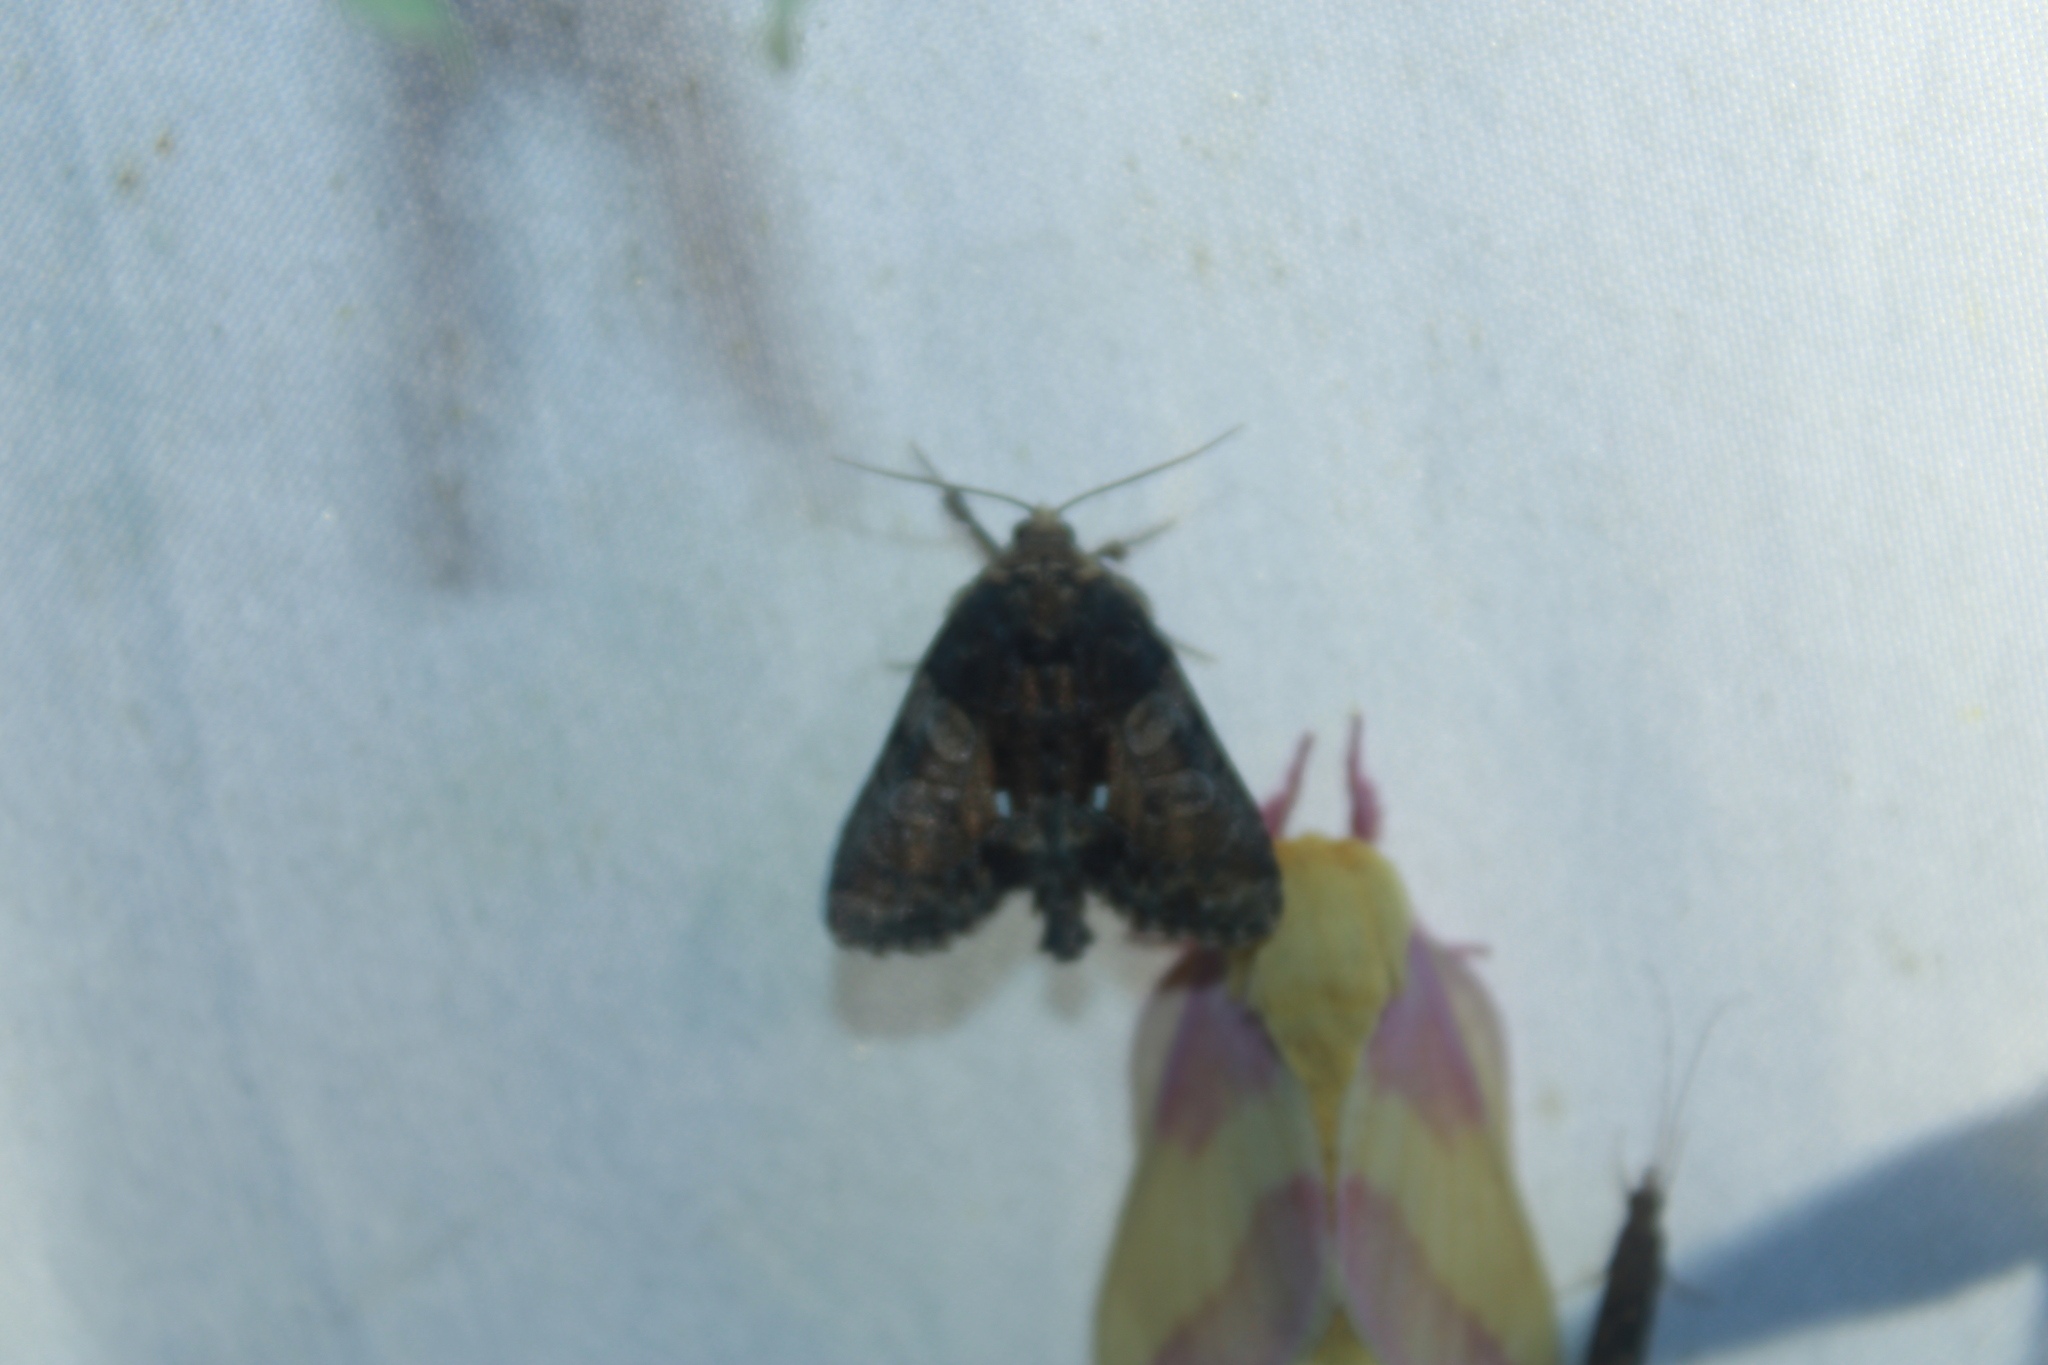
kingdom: Animalia
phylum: Arthropoda
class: Insecta
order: Lepidoptera
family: Noctuidae
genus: Chytonix
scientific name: Chytonix palliatricula
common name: Cloaked marvel
